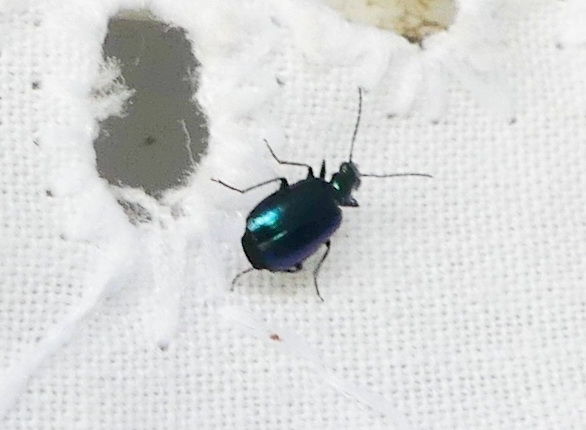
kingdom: Animalia
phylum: Arthropoda
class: Insecta
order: Coleoptera
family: Carabidae
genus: Lebia
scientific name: Lebia viridis
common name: Flower lebia beetle
